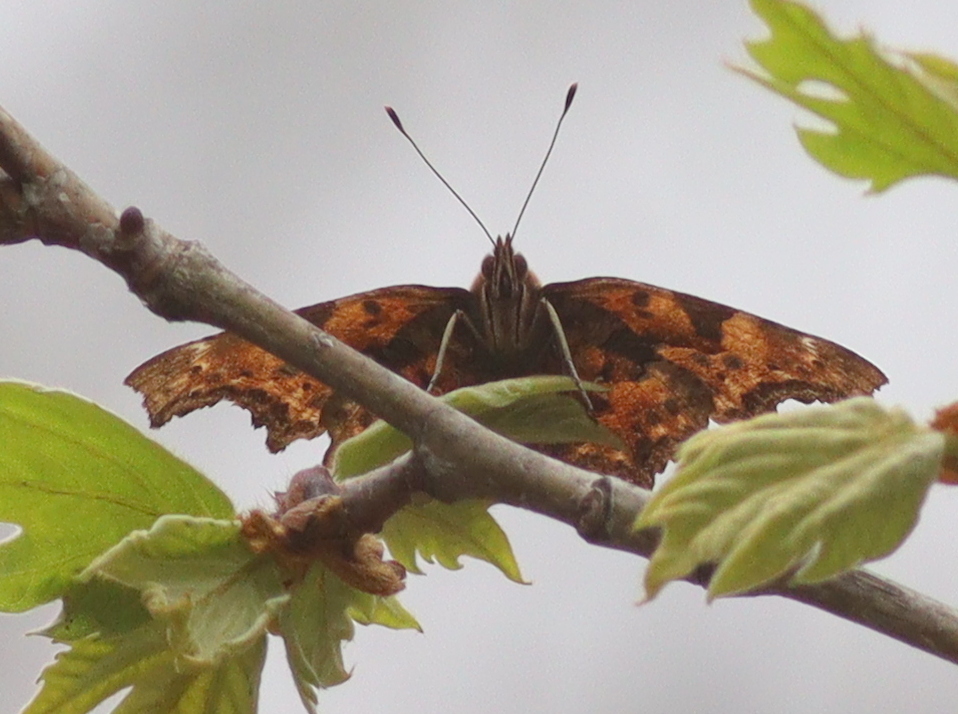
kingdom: Animalia
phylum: Arthropoda
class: Insecta
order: Lepidoptera
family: Nymphalidae
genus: Polygonia
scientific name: Polygonia c-album
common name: Comma
